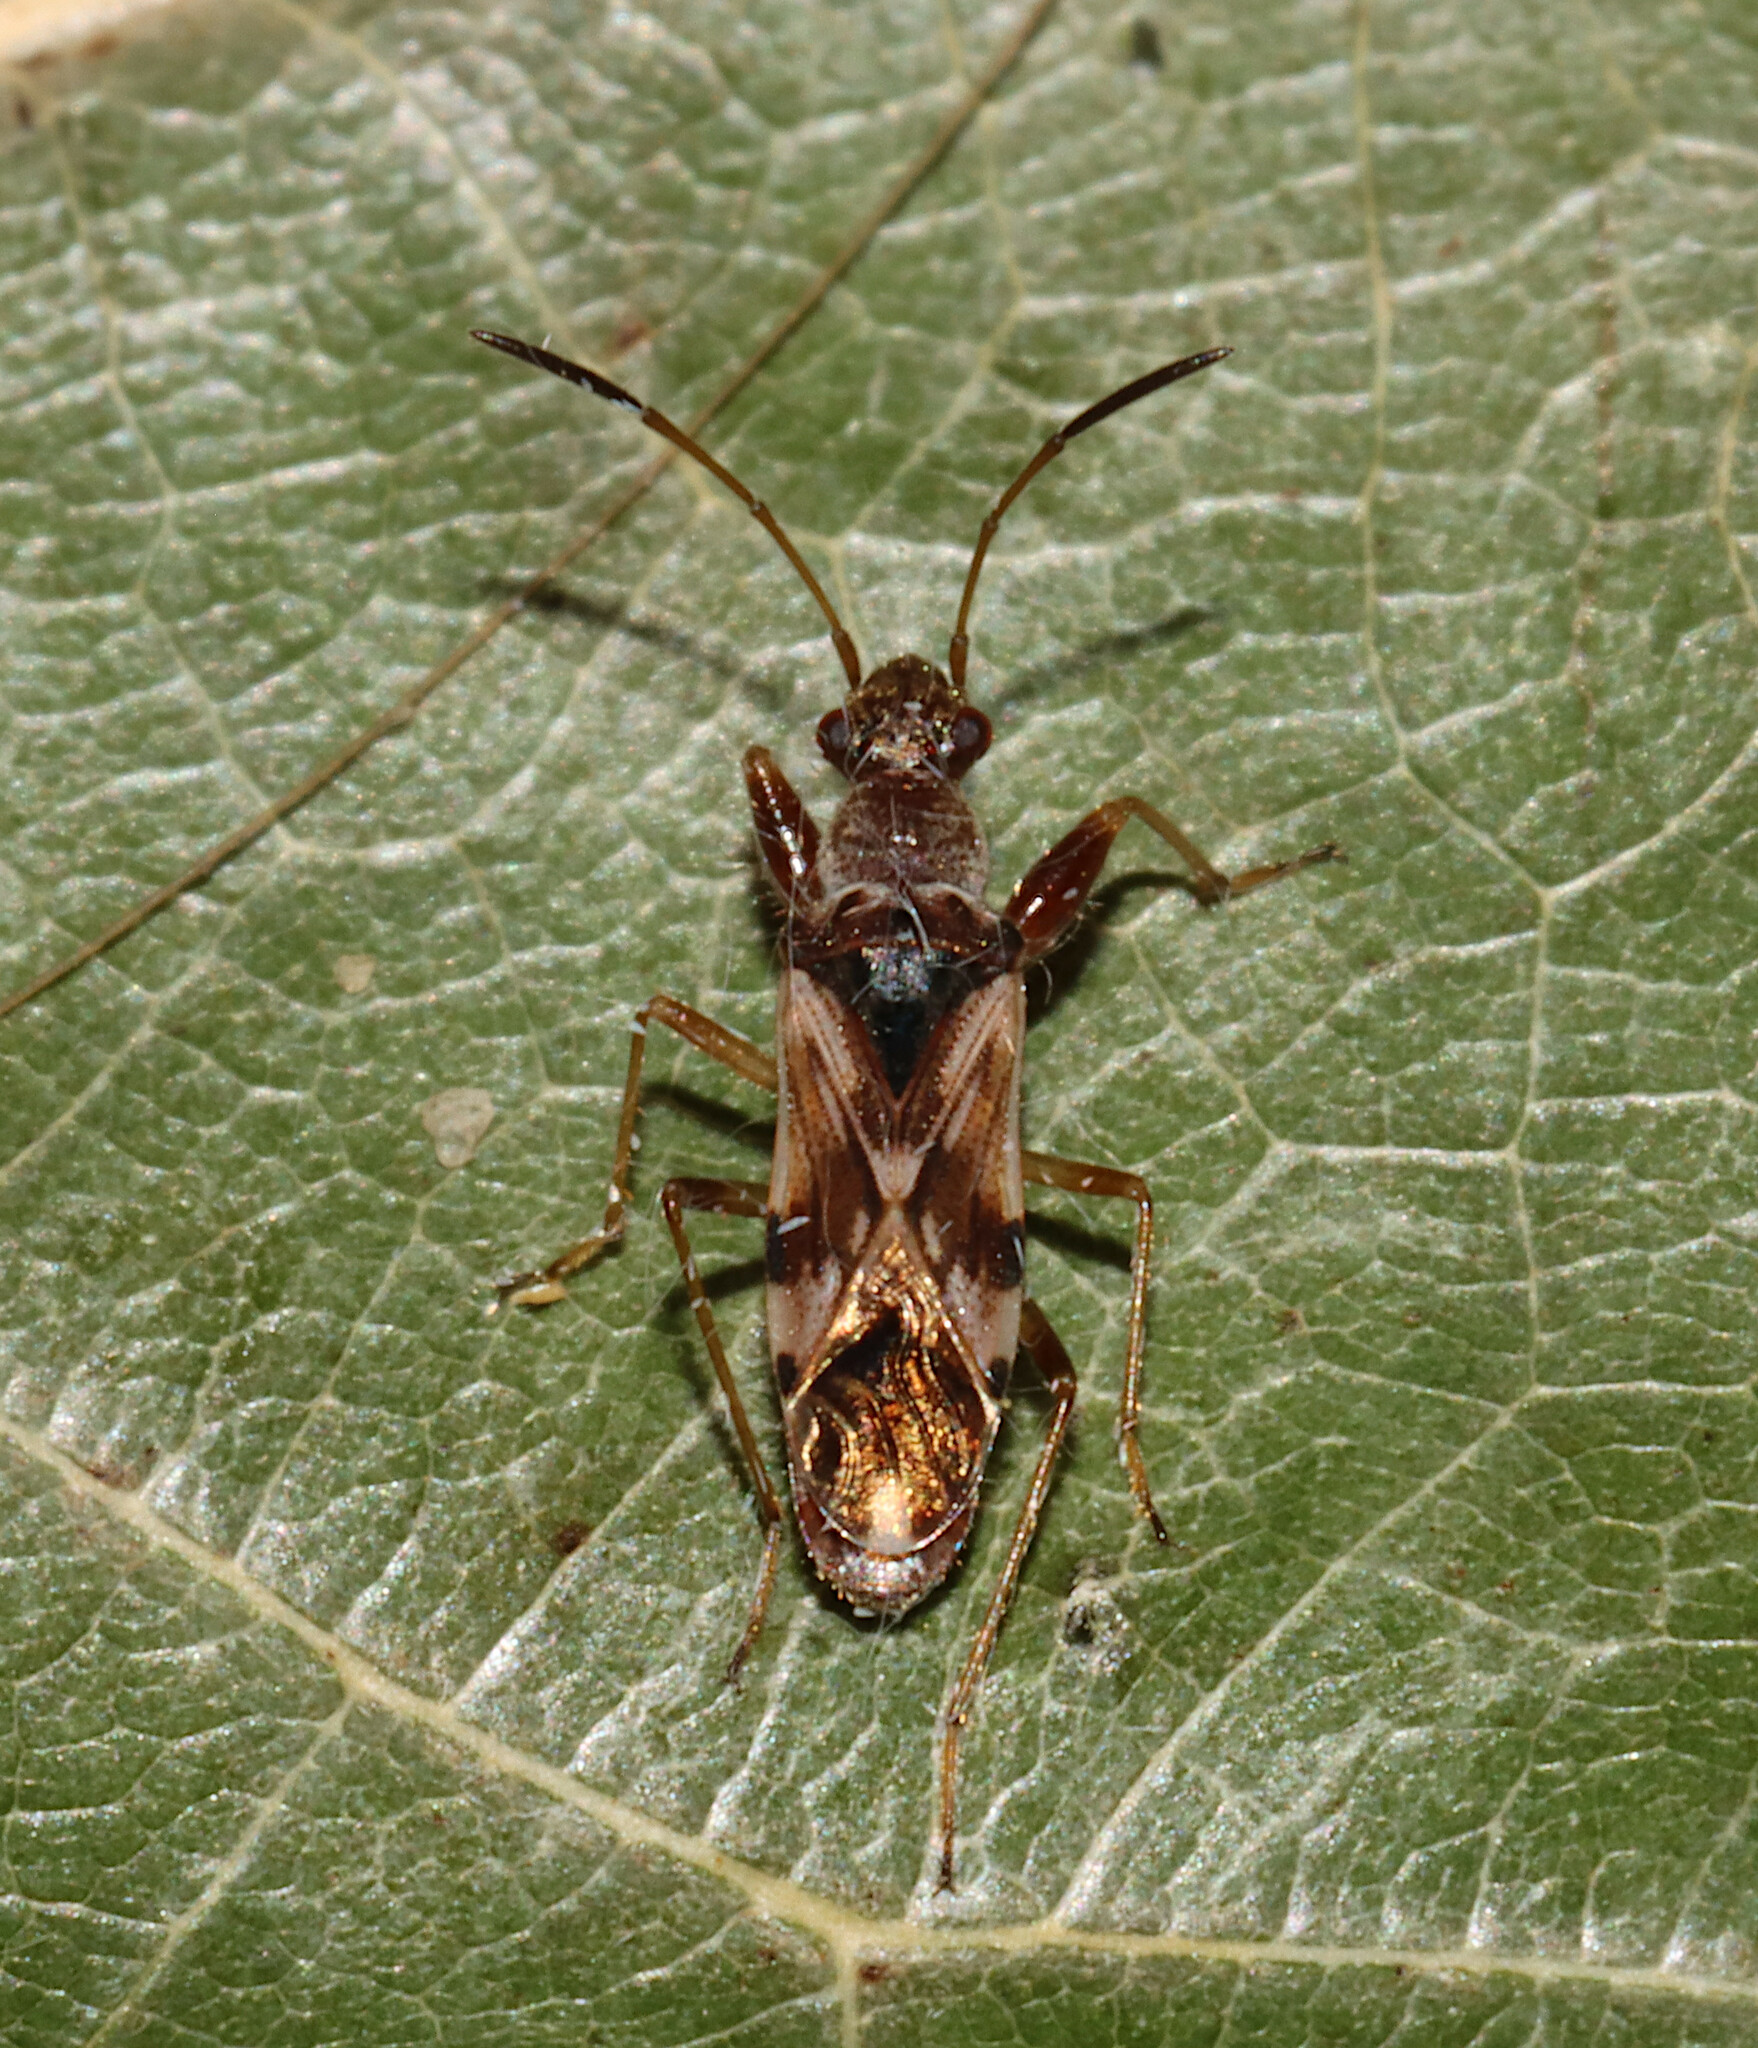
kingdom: Animalia
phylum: Arthropoda
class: Insecta
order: Hemiptera
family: Rhyparochromidae
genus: Neopamera
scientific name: Neopamera bilobata
